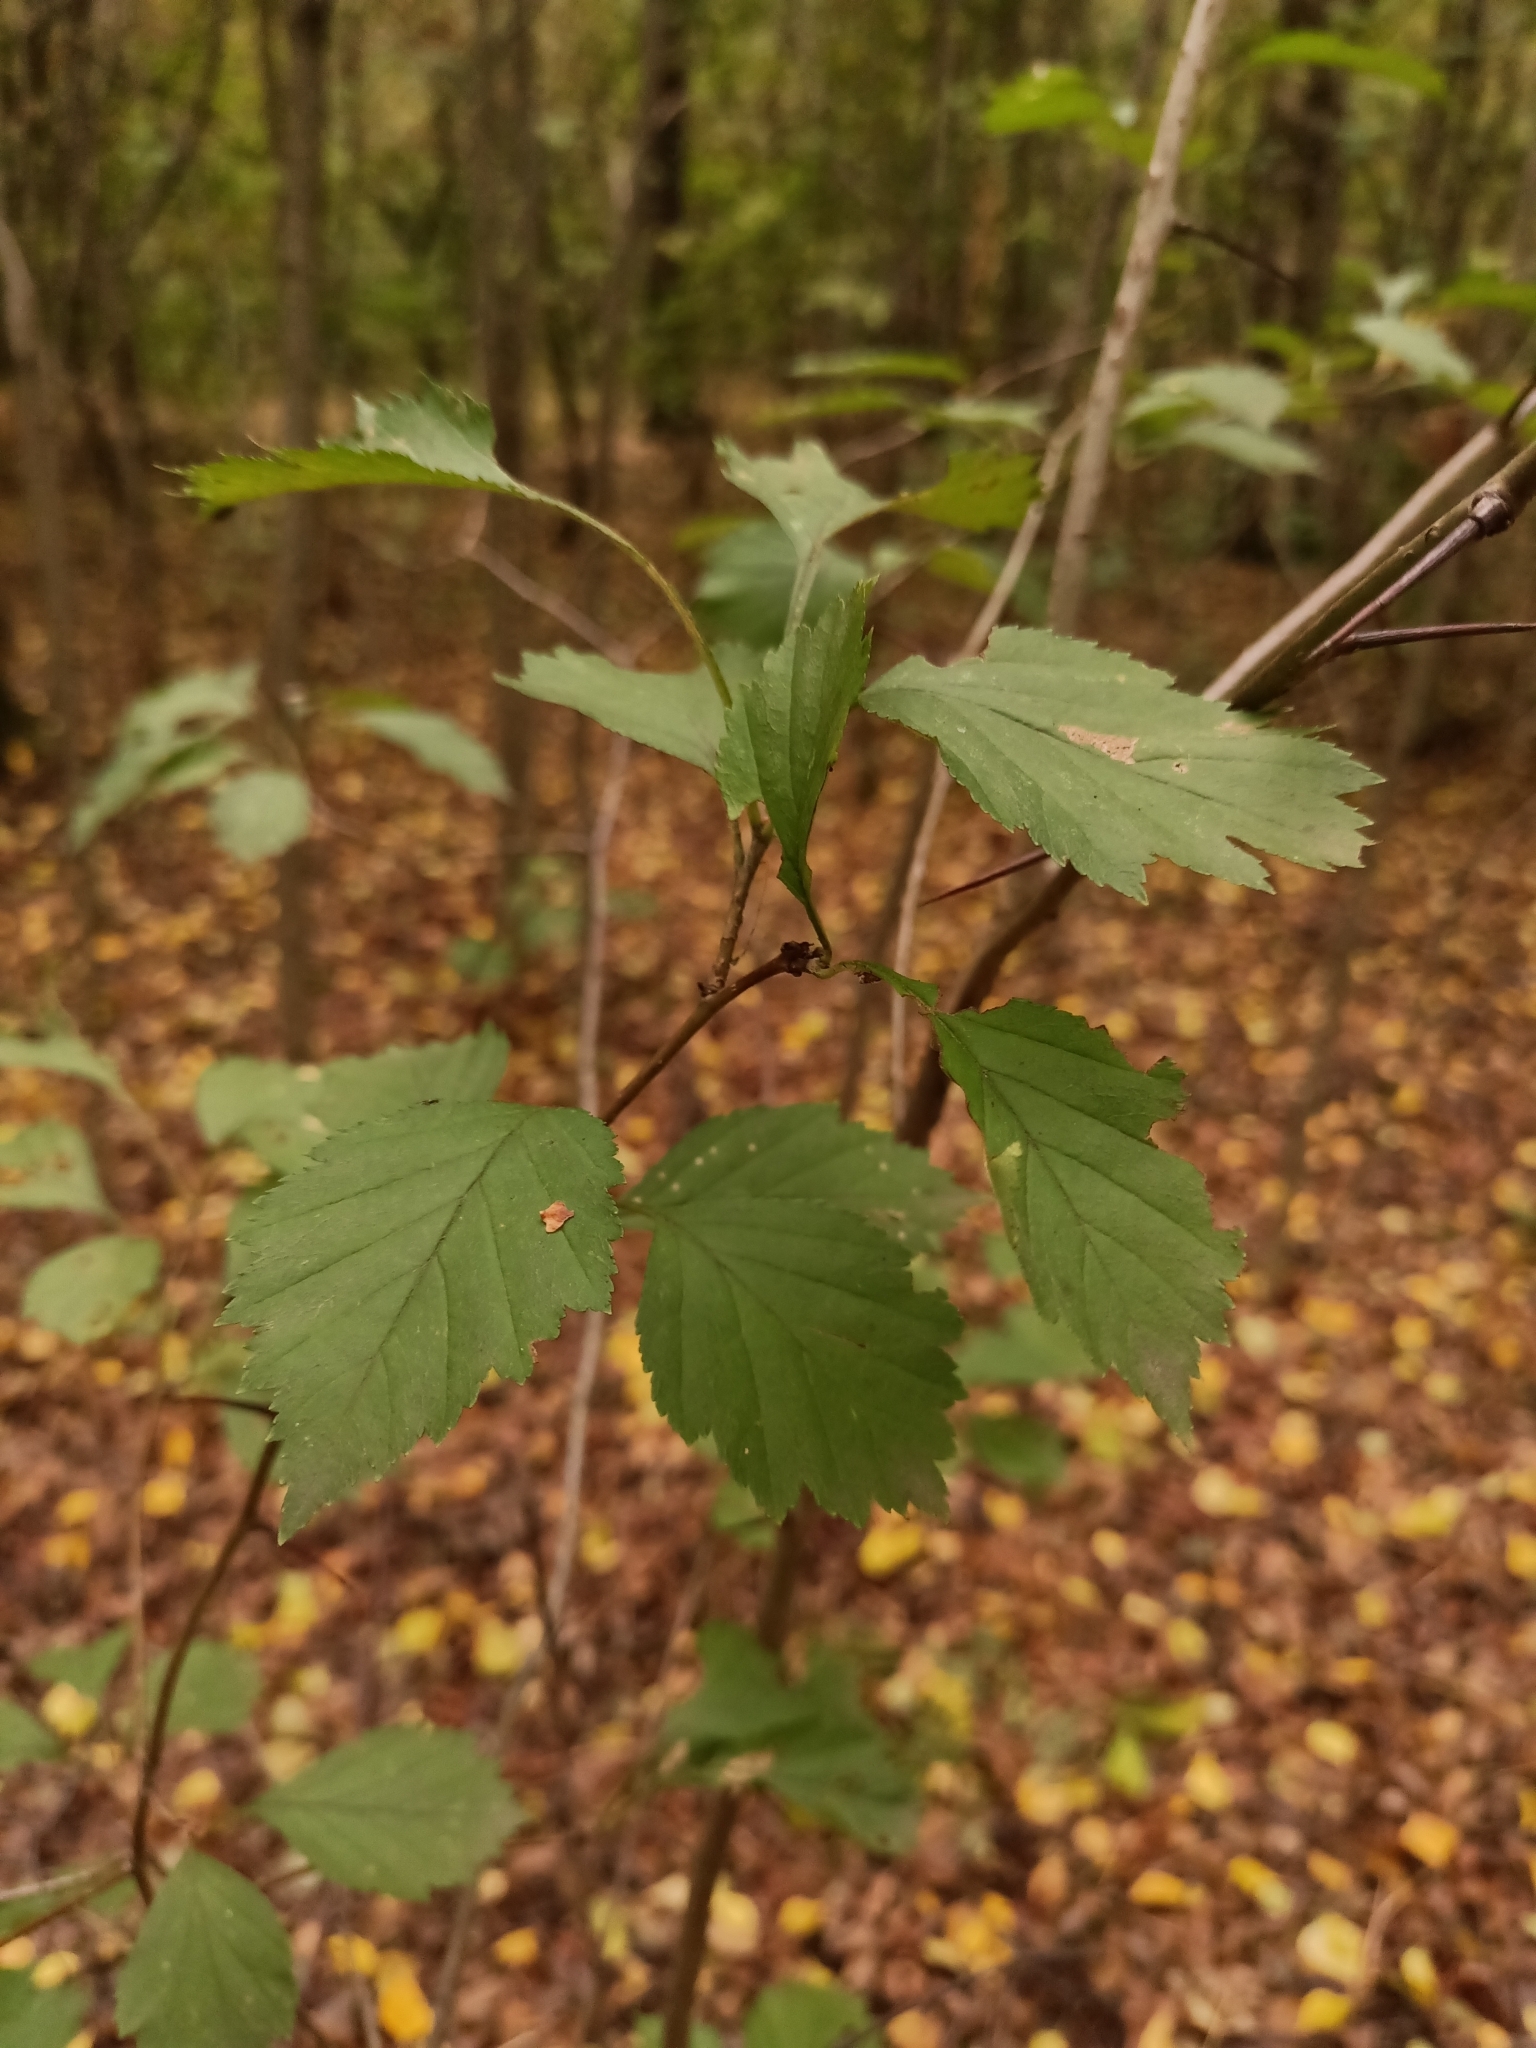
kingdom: Plantae
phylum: Tracheophyta
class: Magnoliopsida
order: Rosales
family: Rosaceae
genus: Crataegus
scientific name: Crataegus sanguinea
